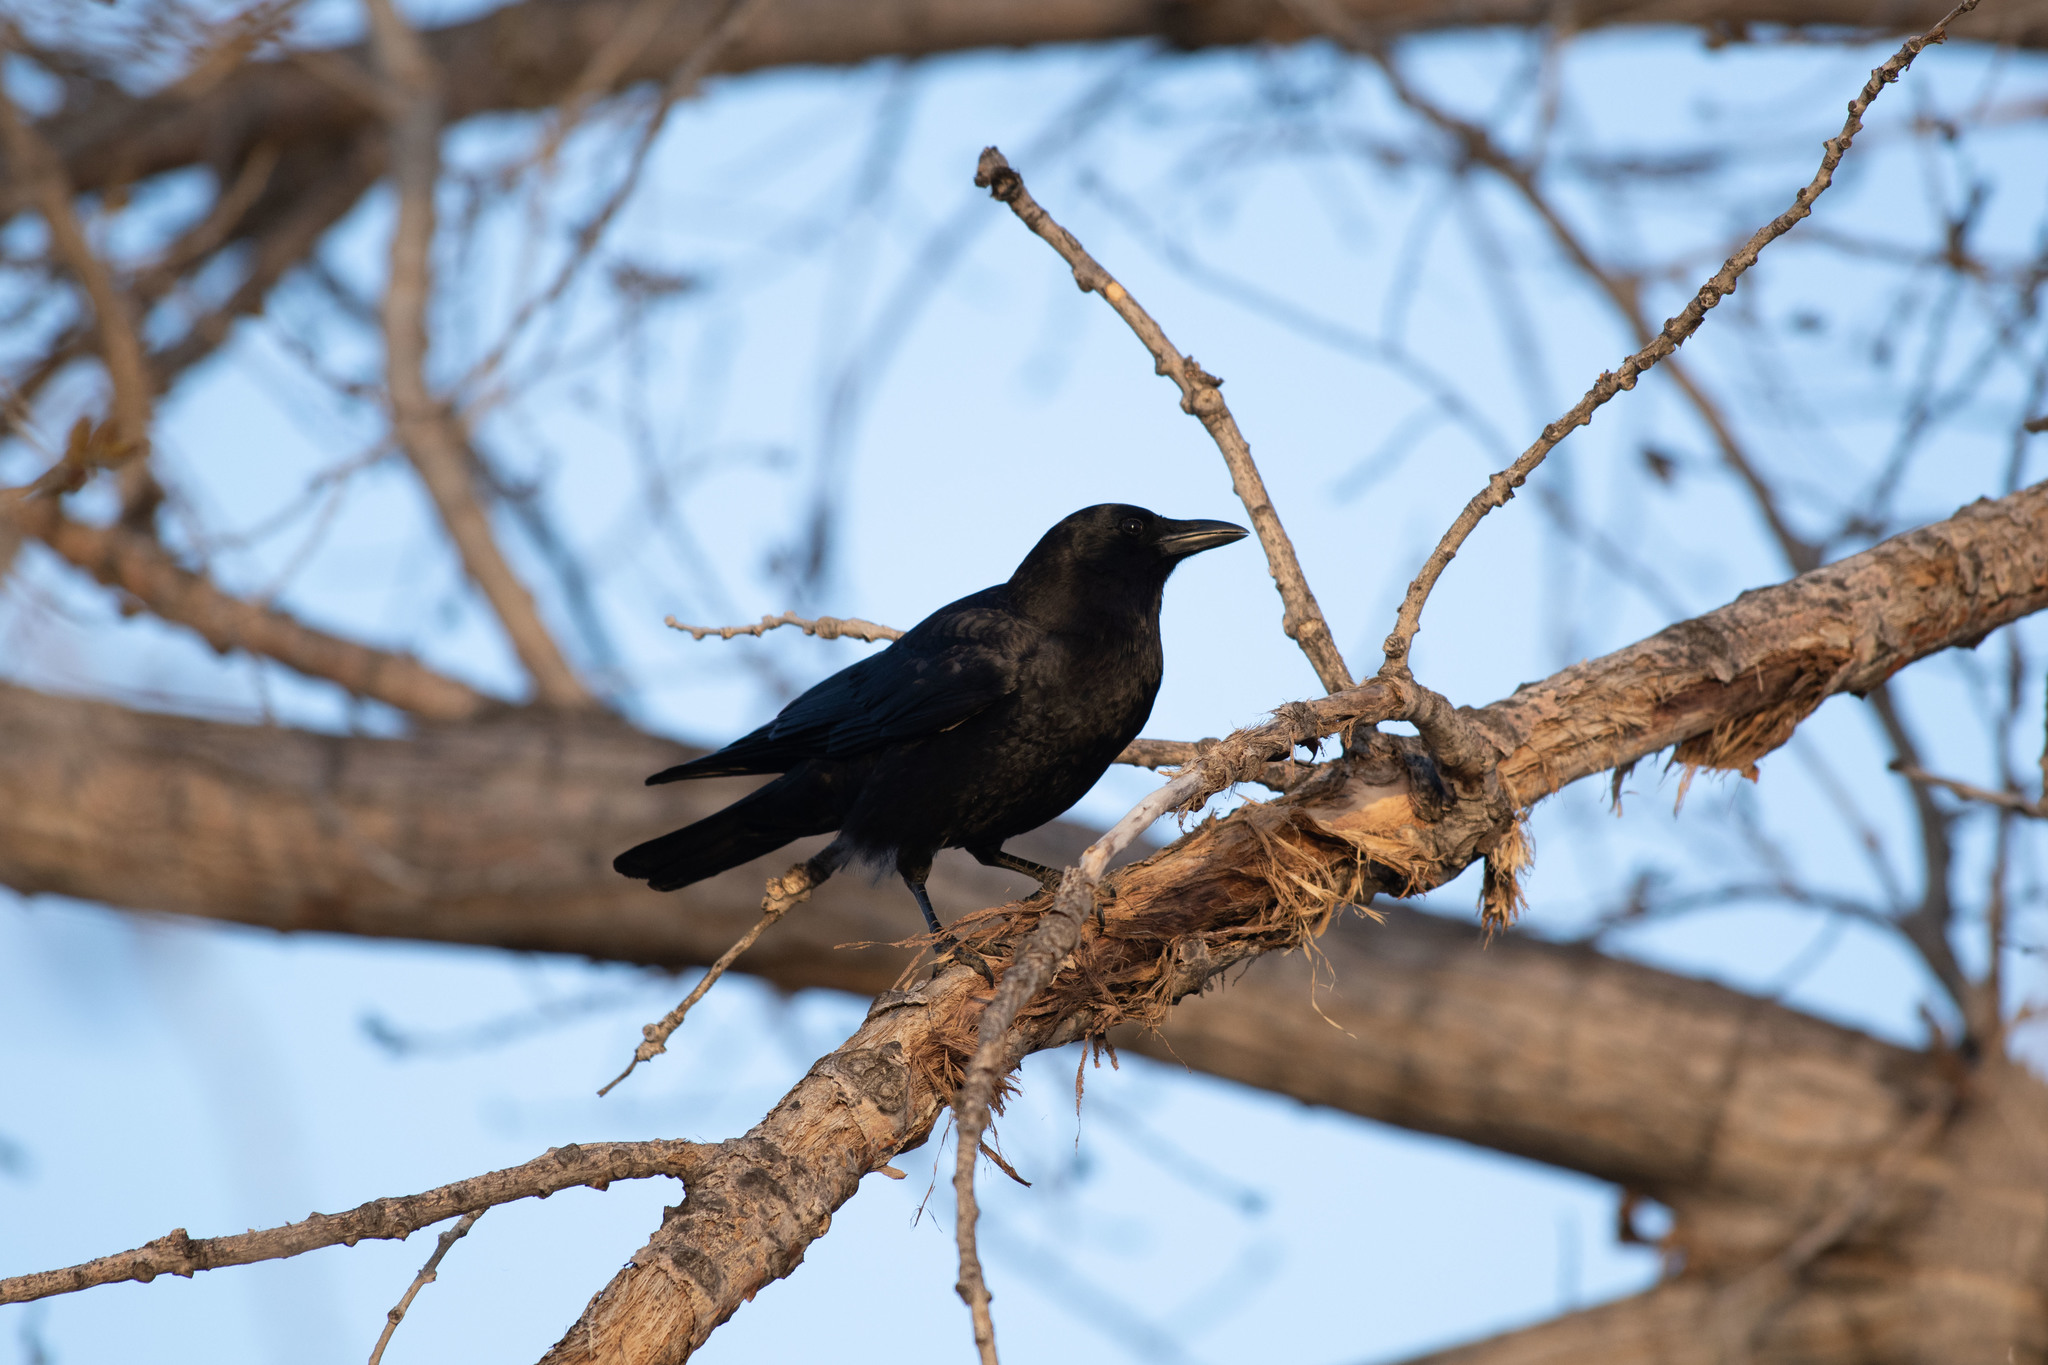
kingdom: Animalia
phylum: Chordata
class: Aves
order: Passeriformes
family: Corvidae
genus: Corvus
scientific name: Corvus brachyrhynchos
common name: American crow
